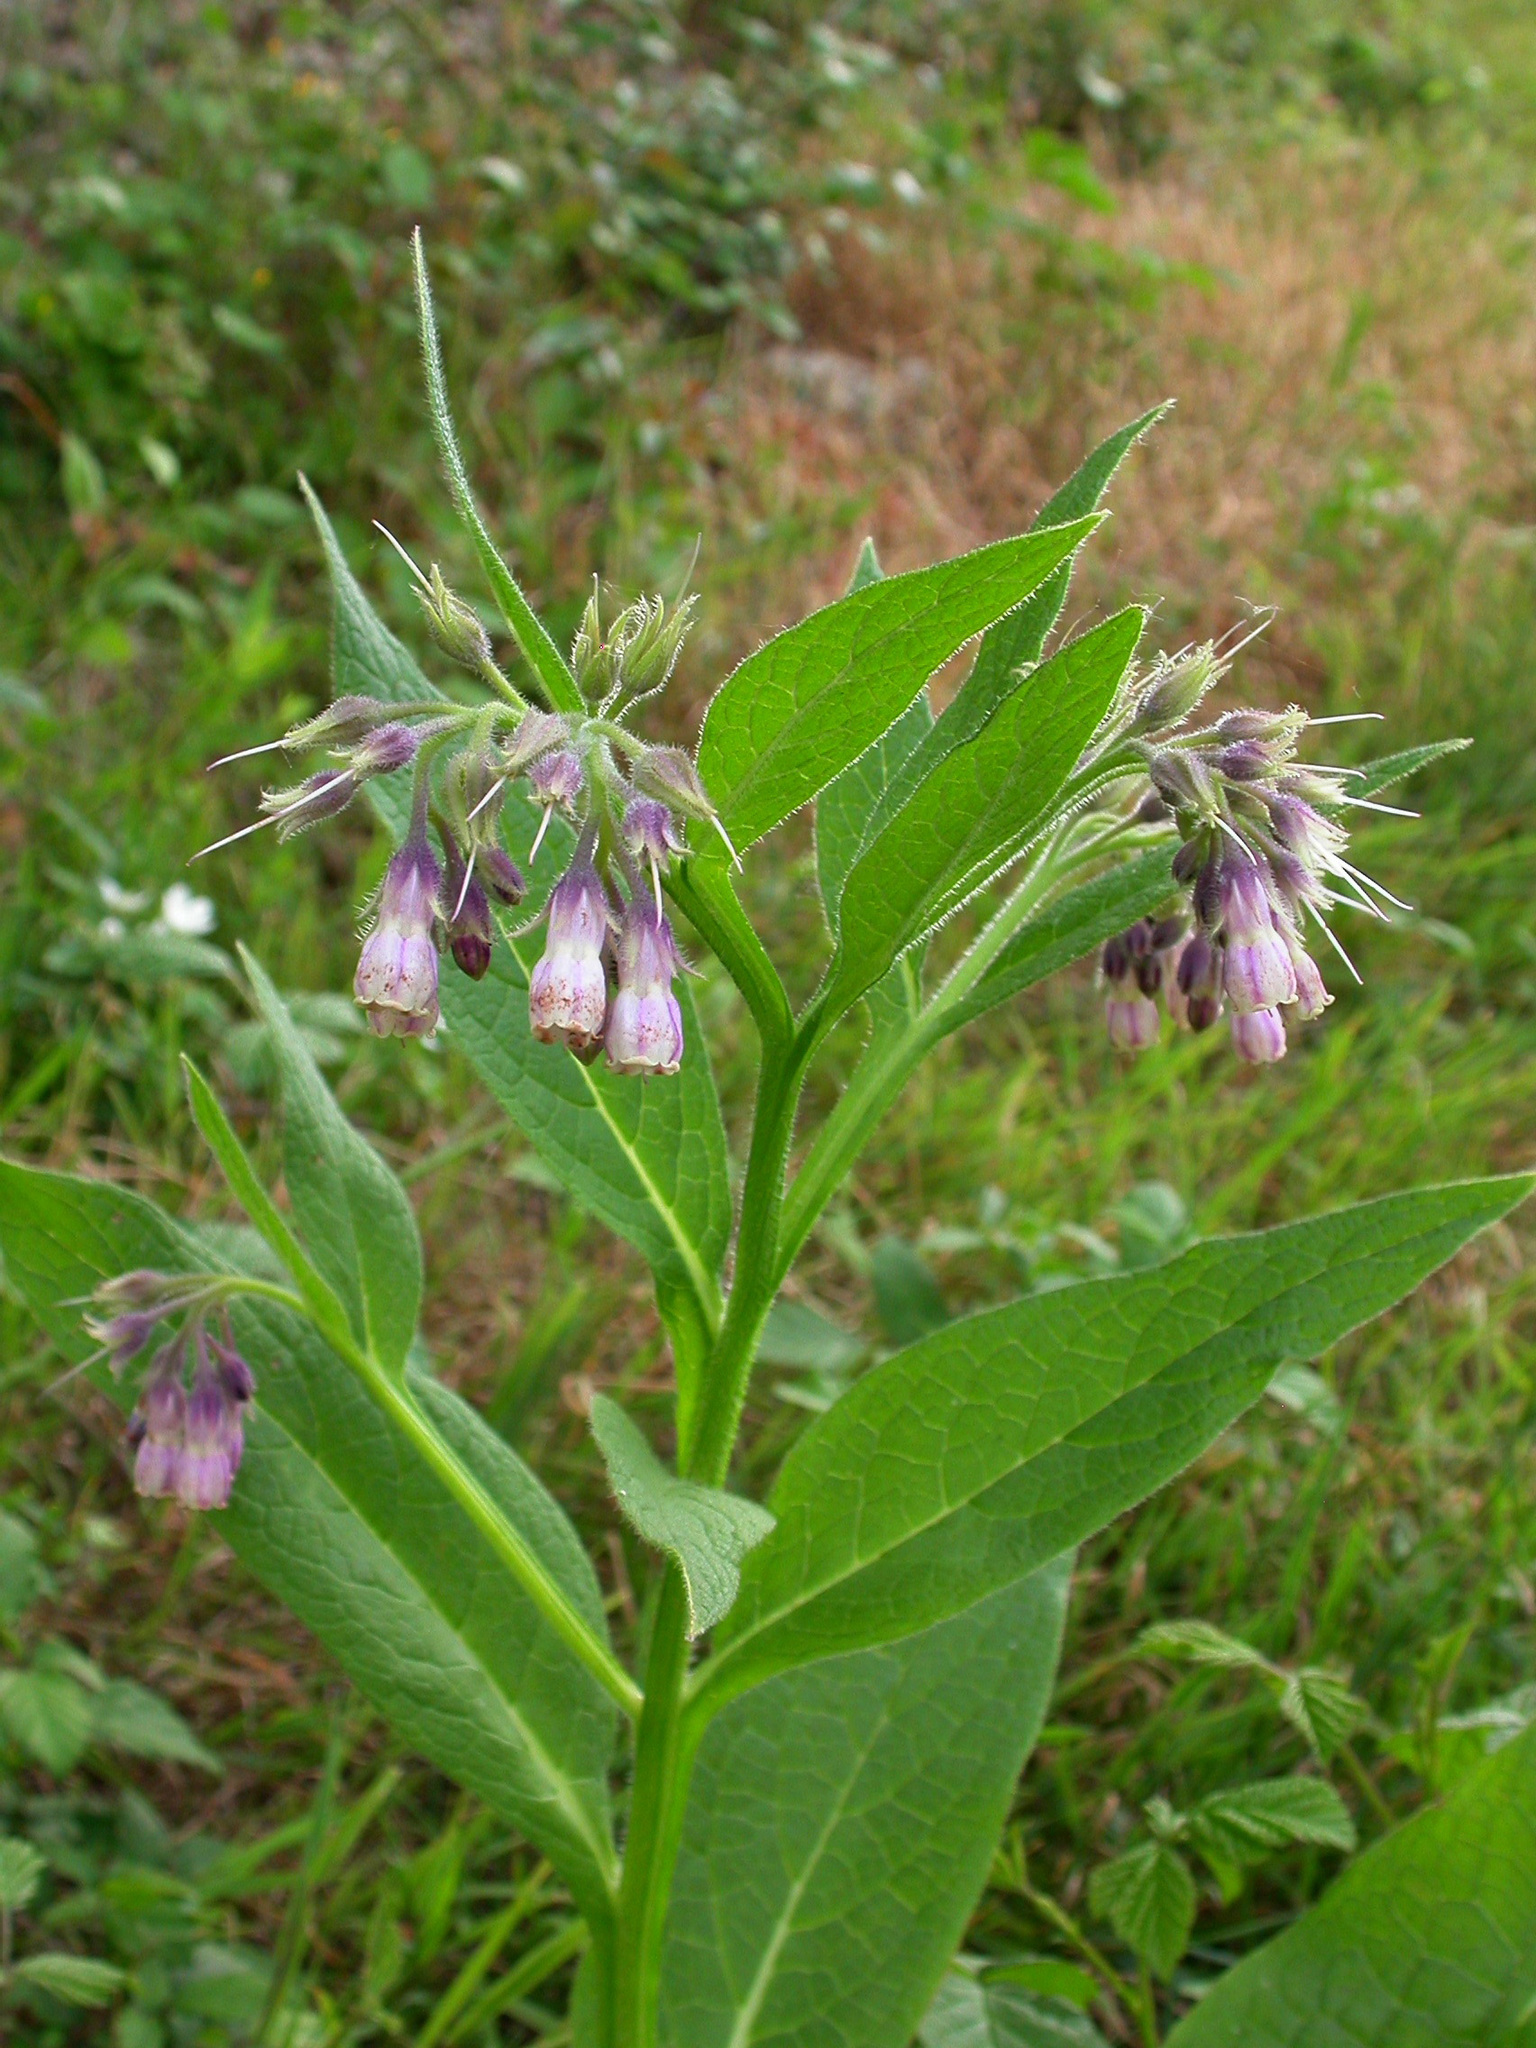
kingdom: Plantae
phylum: Tracheophyta
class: Magnoliopsida
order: Boraginales
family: Boraginaceae
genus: Symphytum
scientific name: Symphytum officinale
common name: Common comfrey
